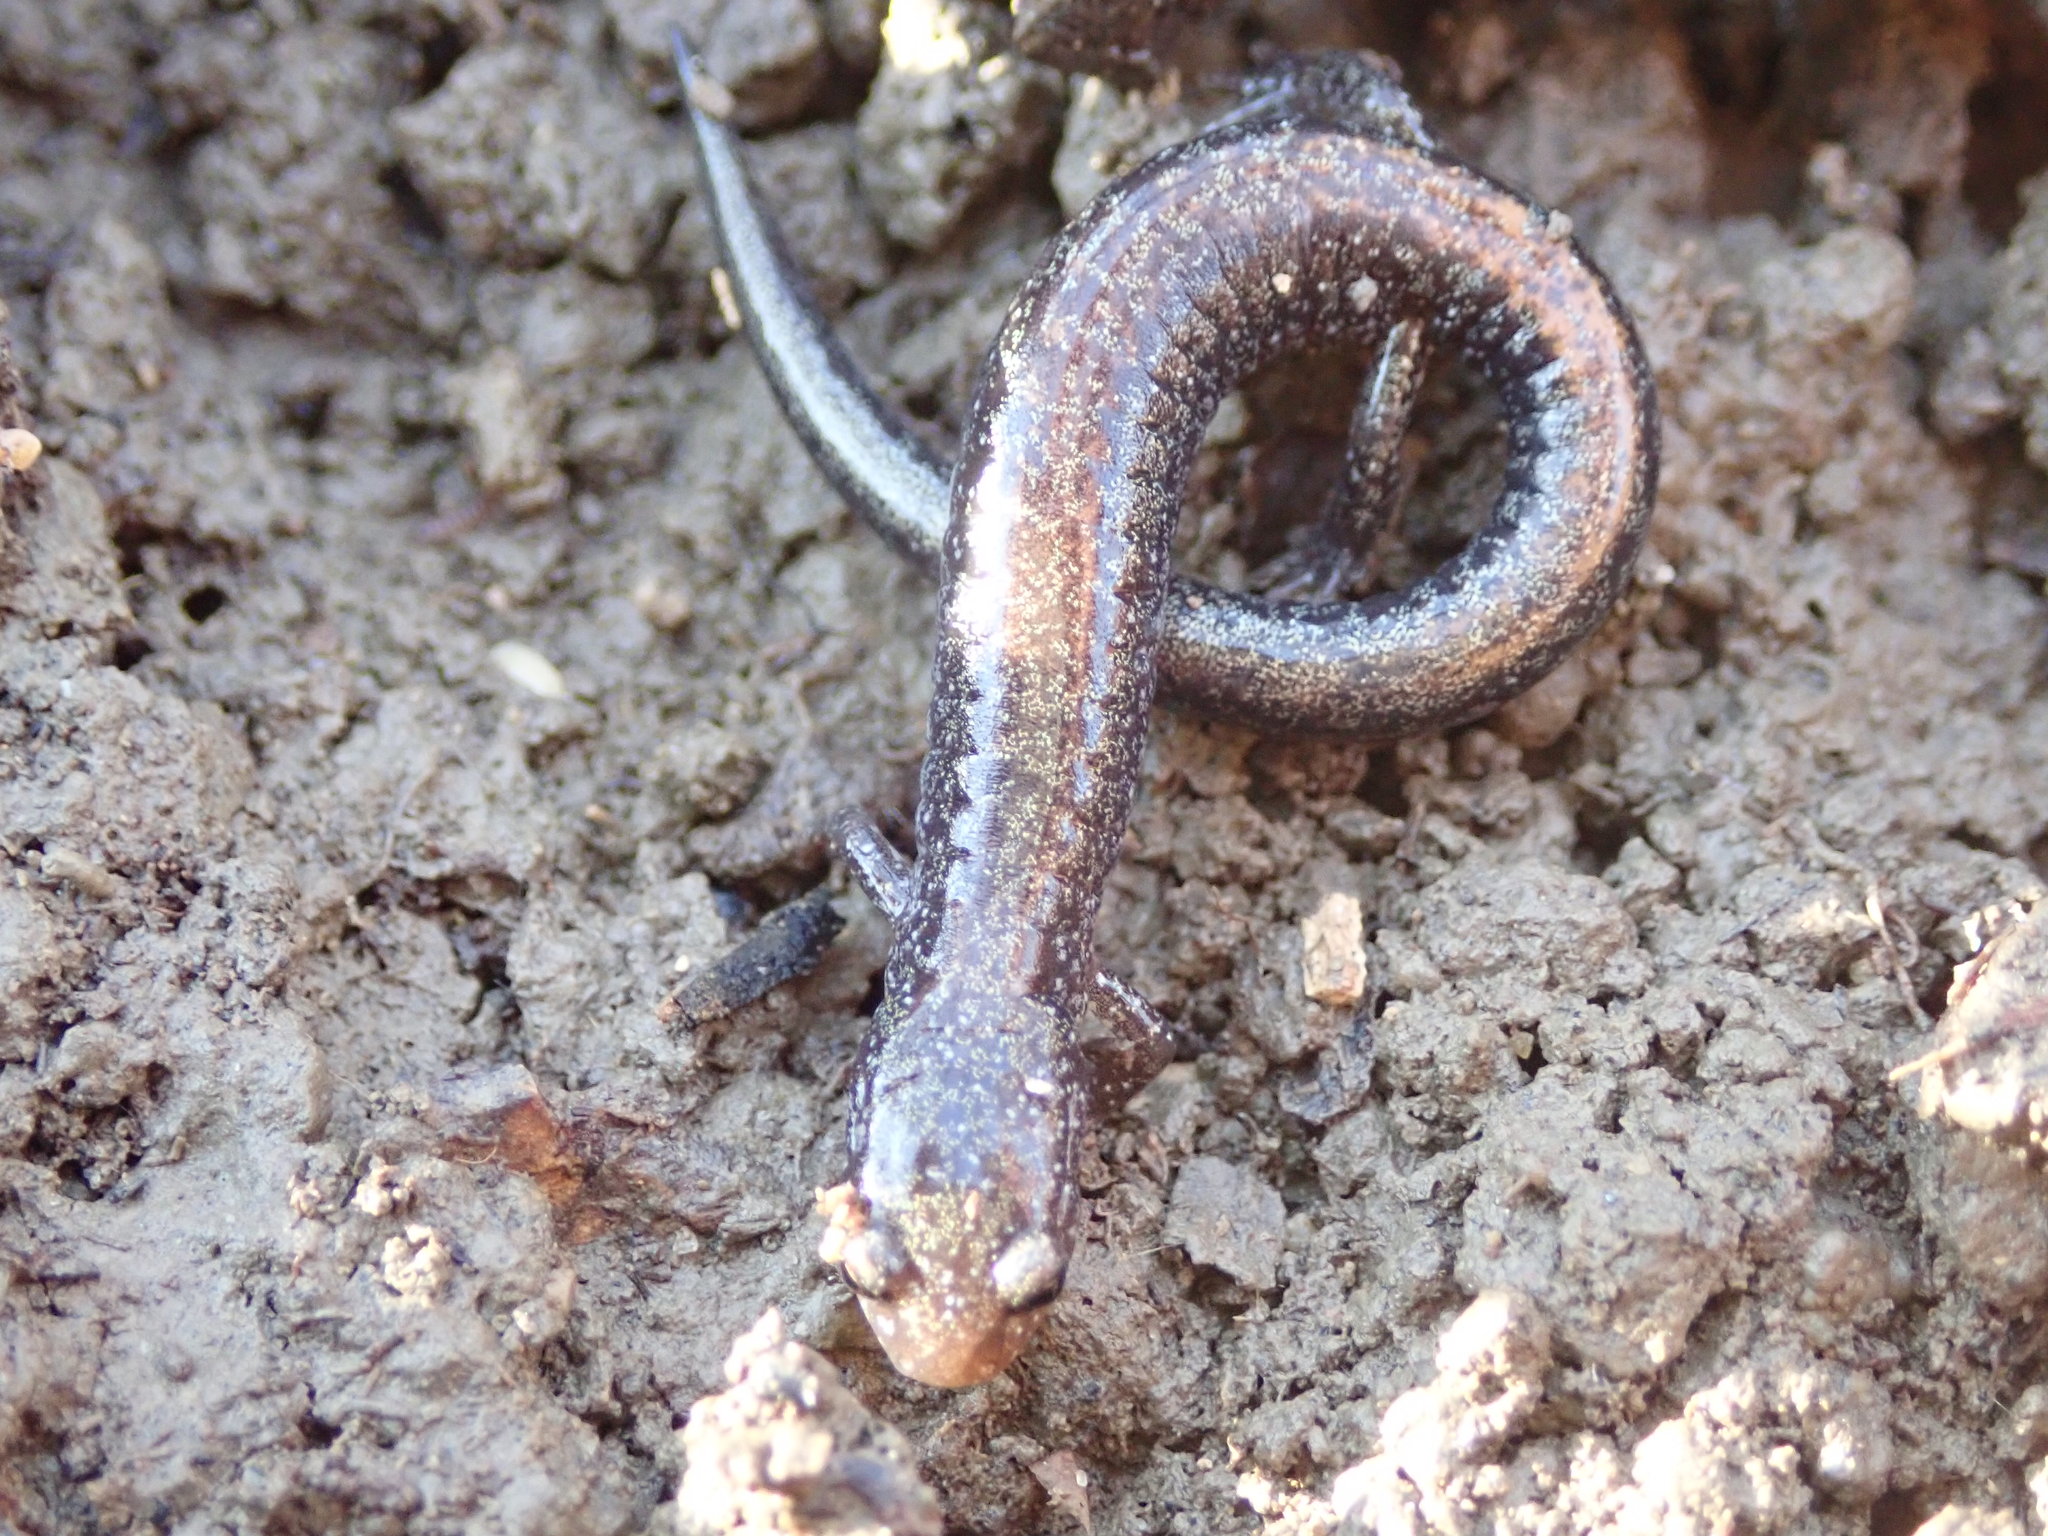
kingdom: Animalia
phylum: Chordata
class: Amphibia
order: Caudata
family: Plethodontidae
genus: Plethodon
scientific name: Plethodon cinereus
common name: Redback salamander
